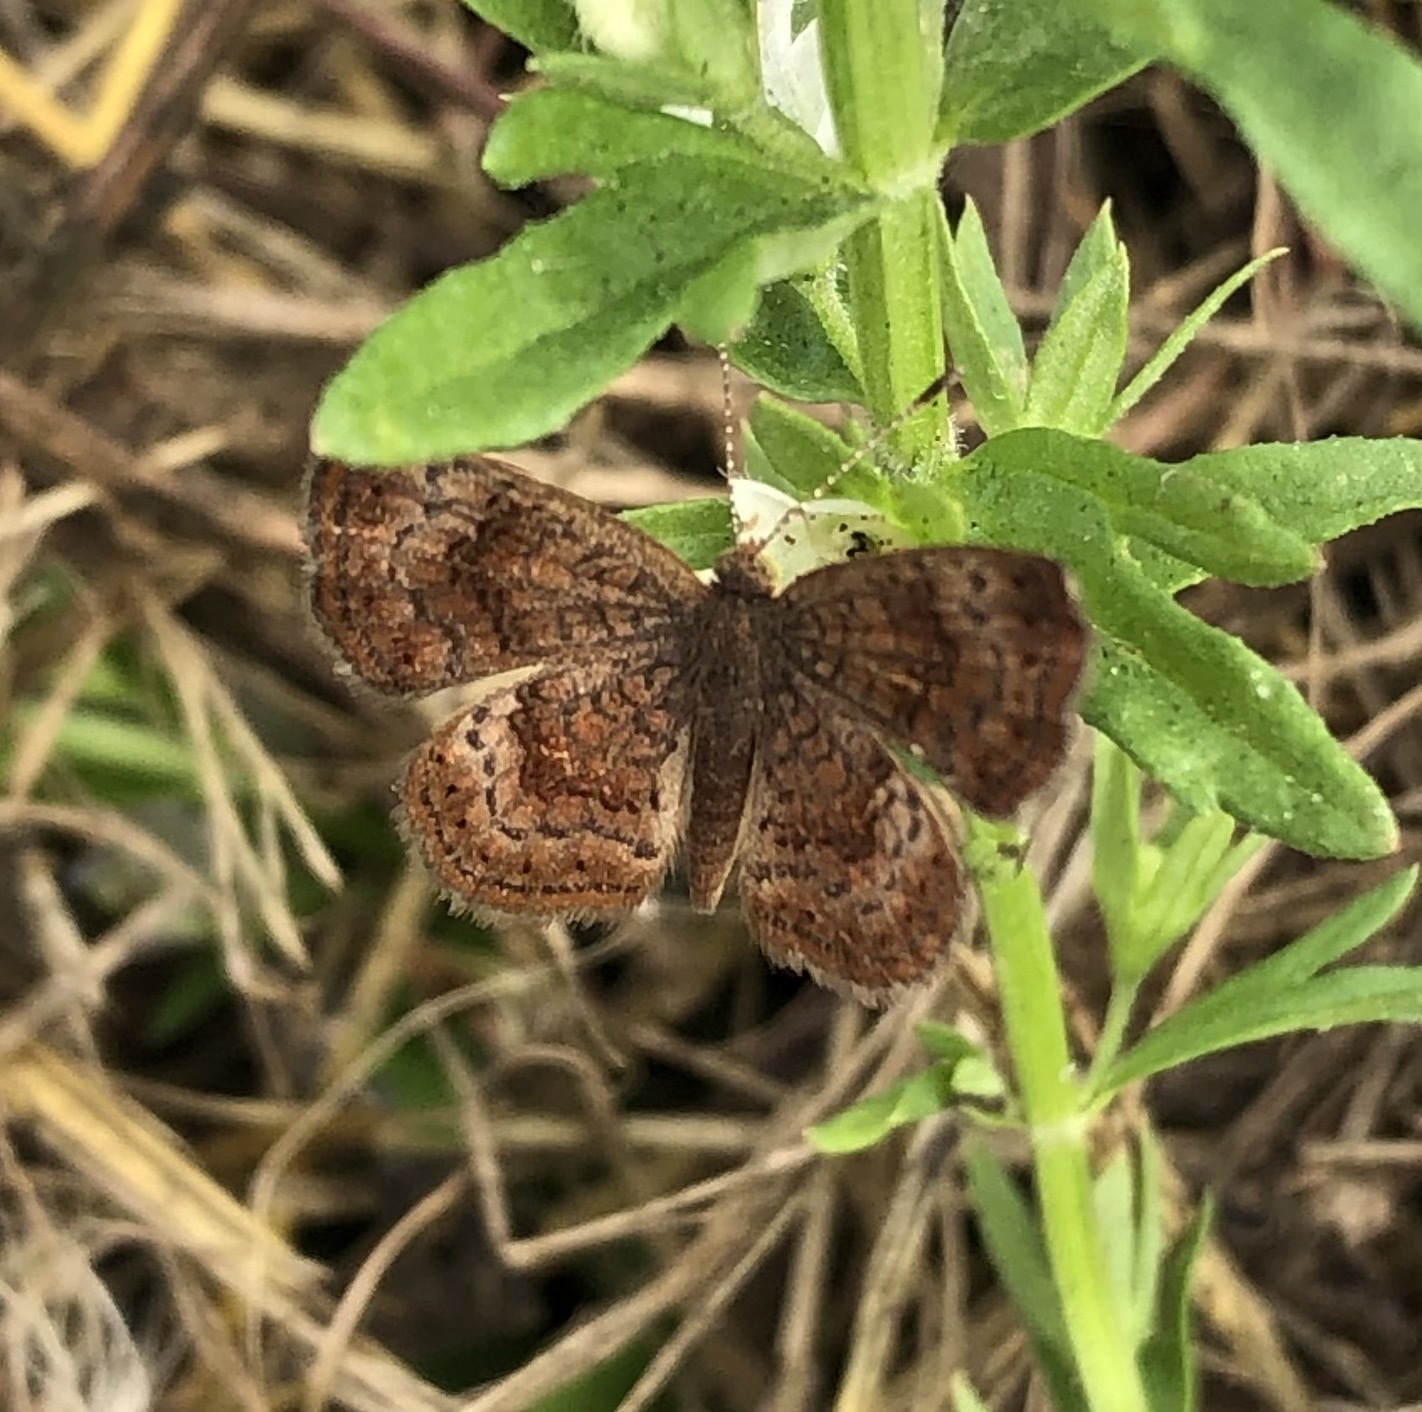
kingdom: Animalia
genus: Calephelis
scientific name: Calephelis nemesis
